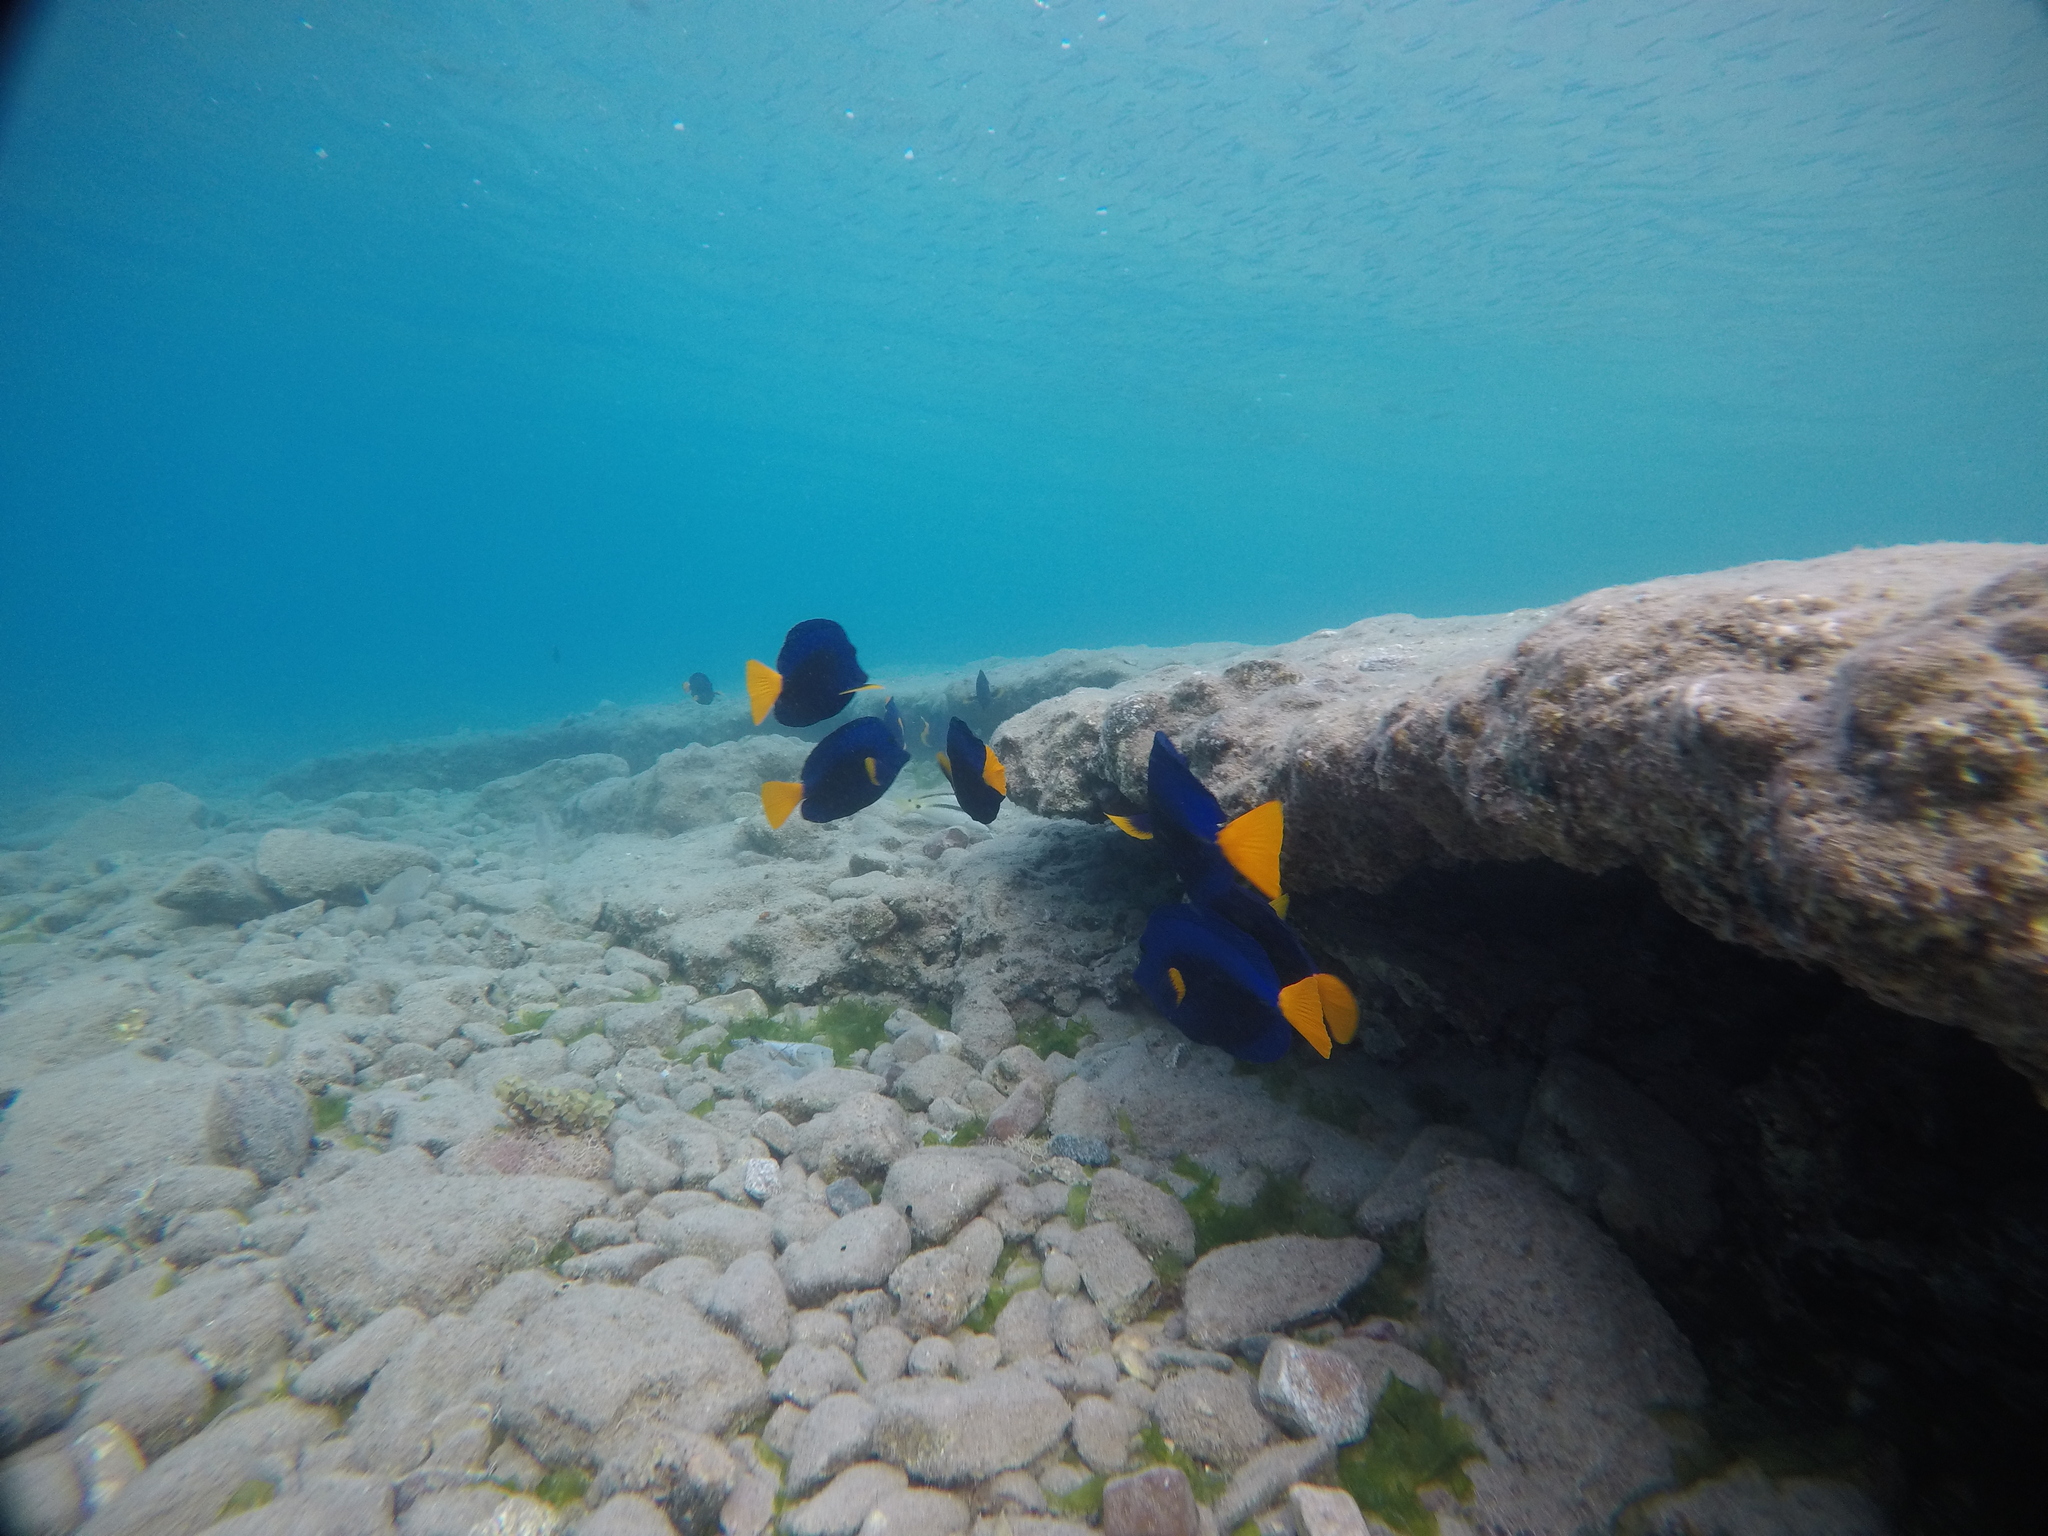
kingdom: Animalia
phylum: Chordata
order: Perciformes
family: Acanthuridae
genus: Zebrasoma
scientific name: Zebrasoma xanthurum
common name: Purple tang
